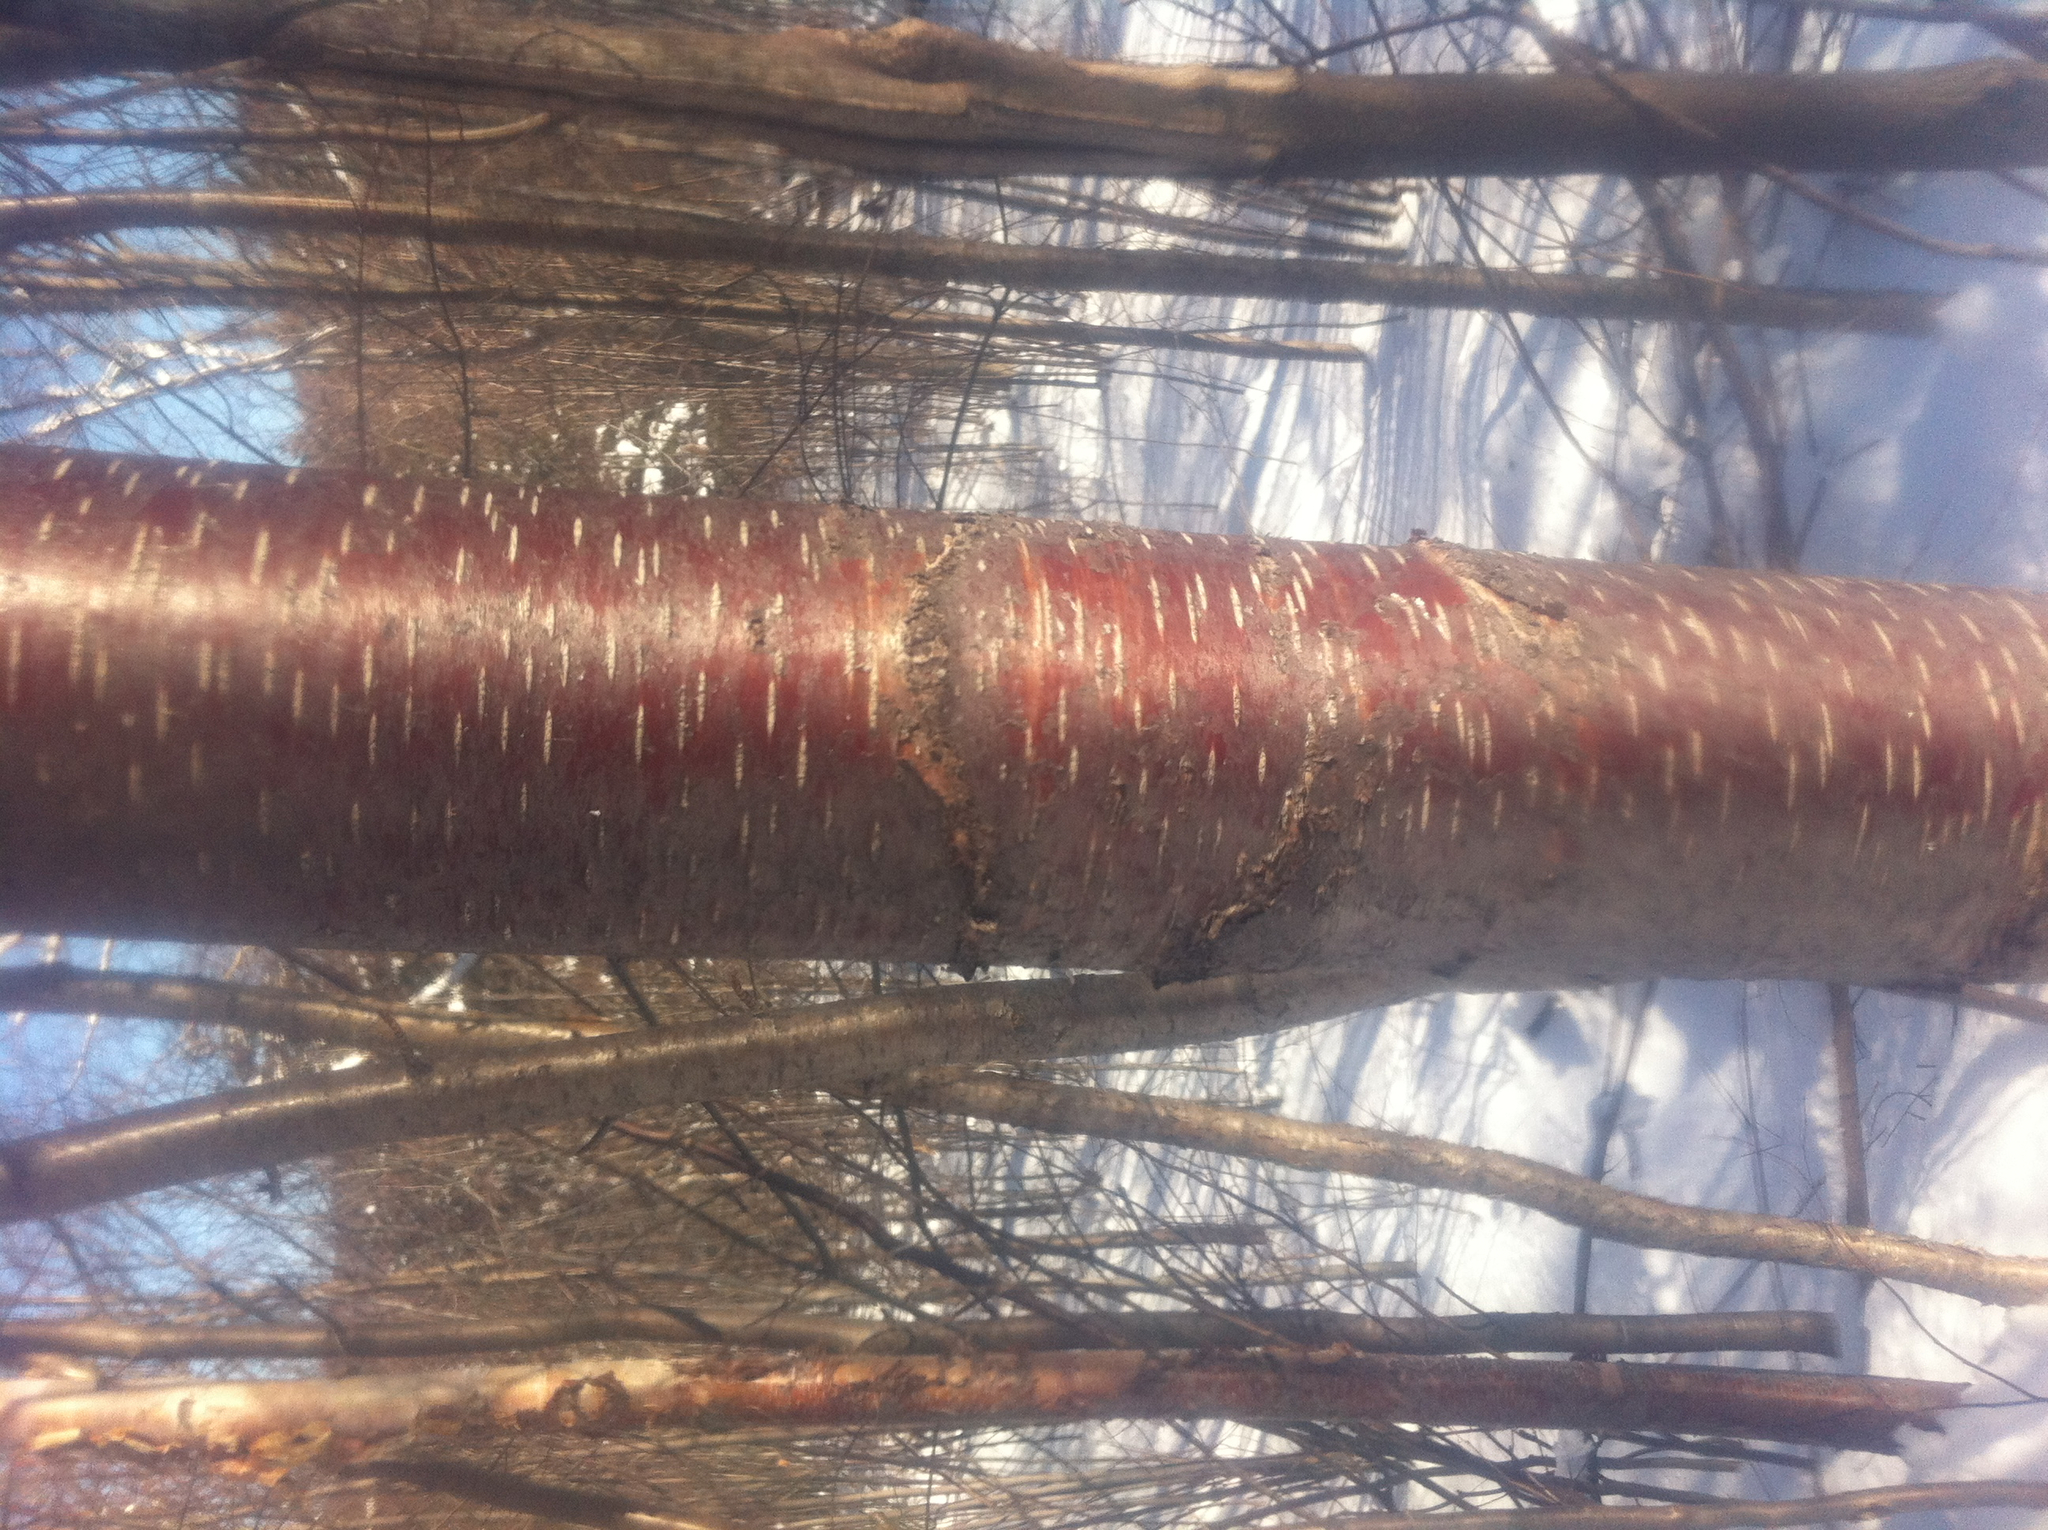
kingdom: Plantae
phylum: Tracheophyta
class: Magnoliopsida
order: Fagales
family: Betulaceae
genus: Betula
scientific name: Betula cordifolia
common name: Mountain white birch
